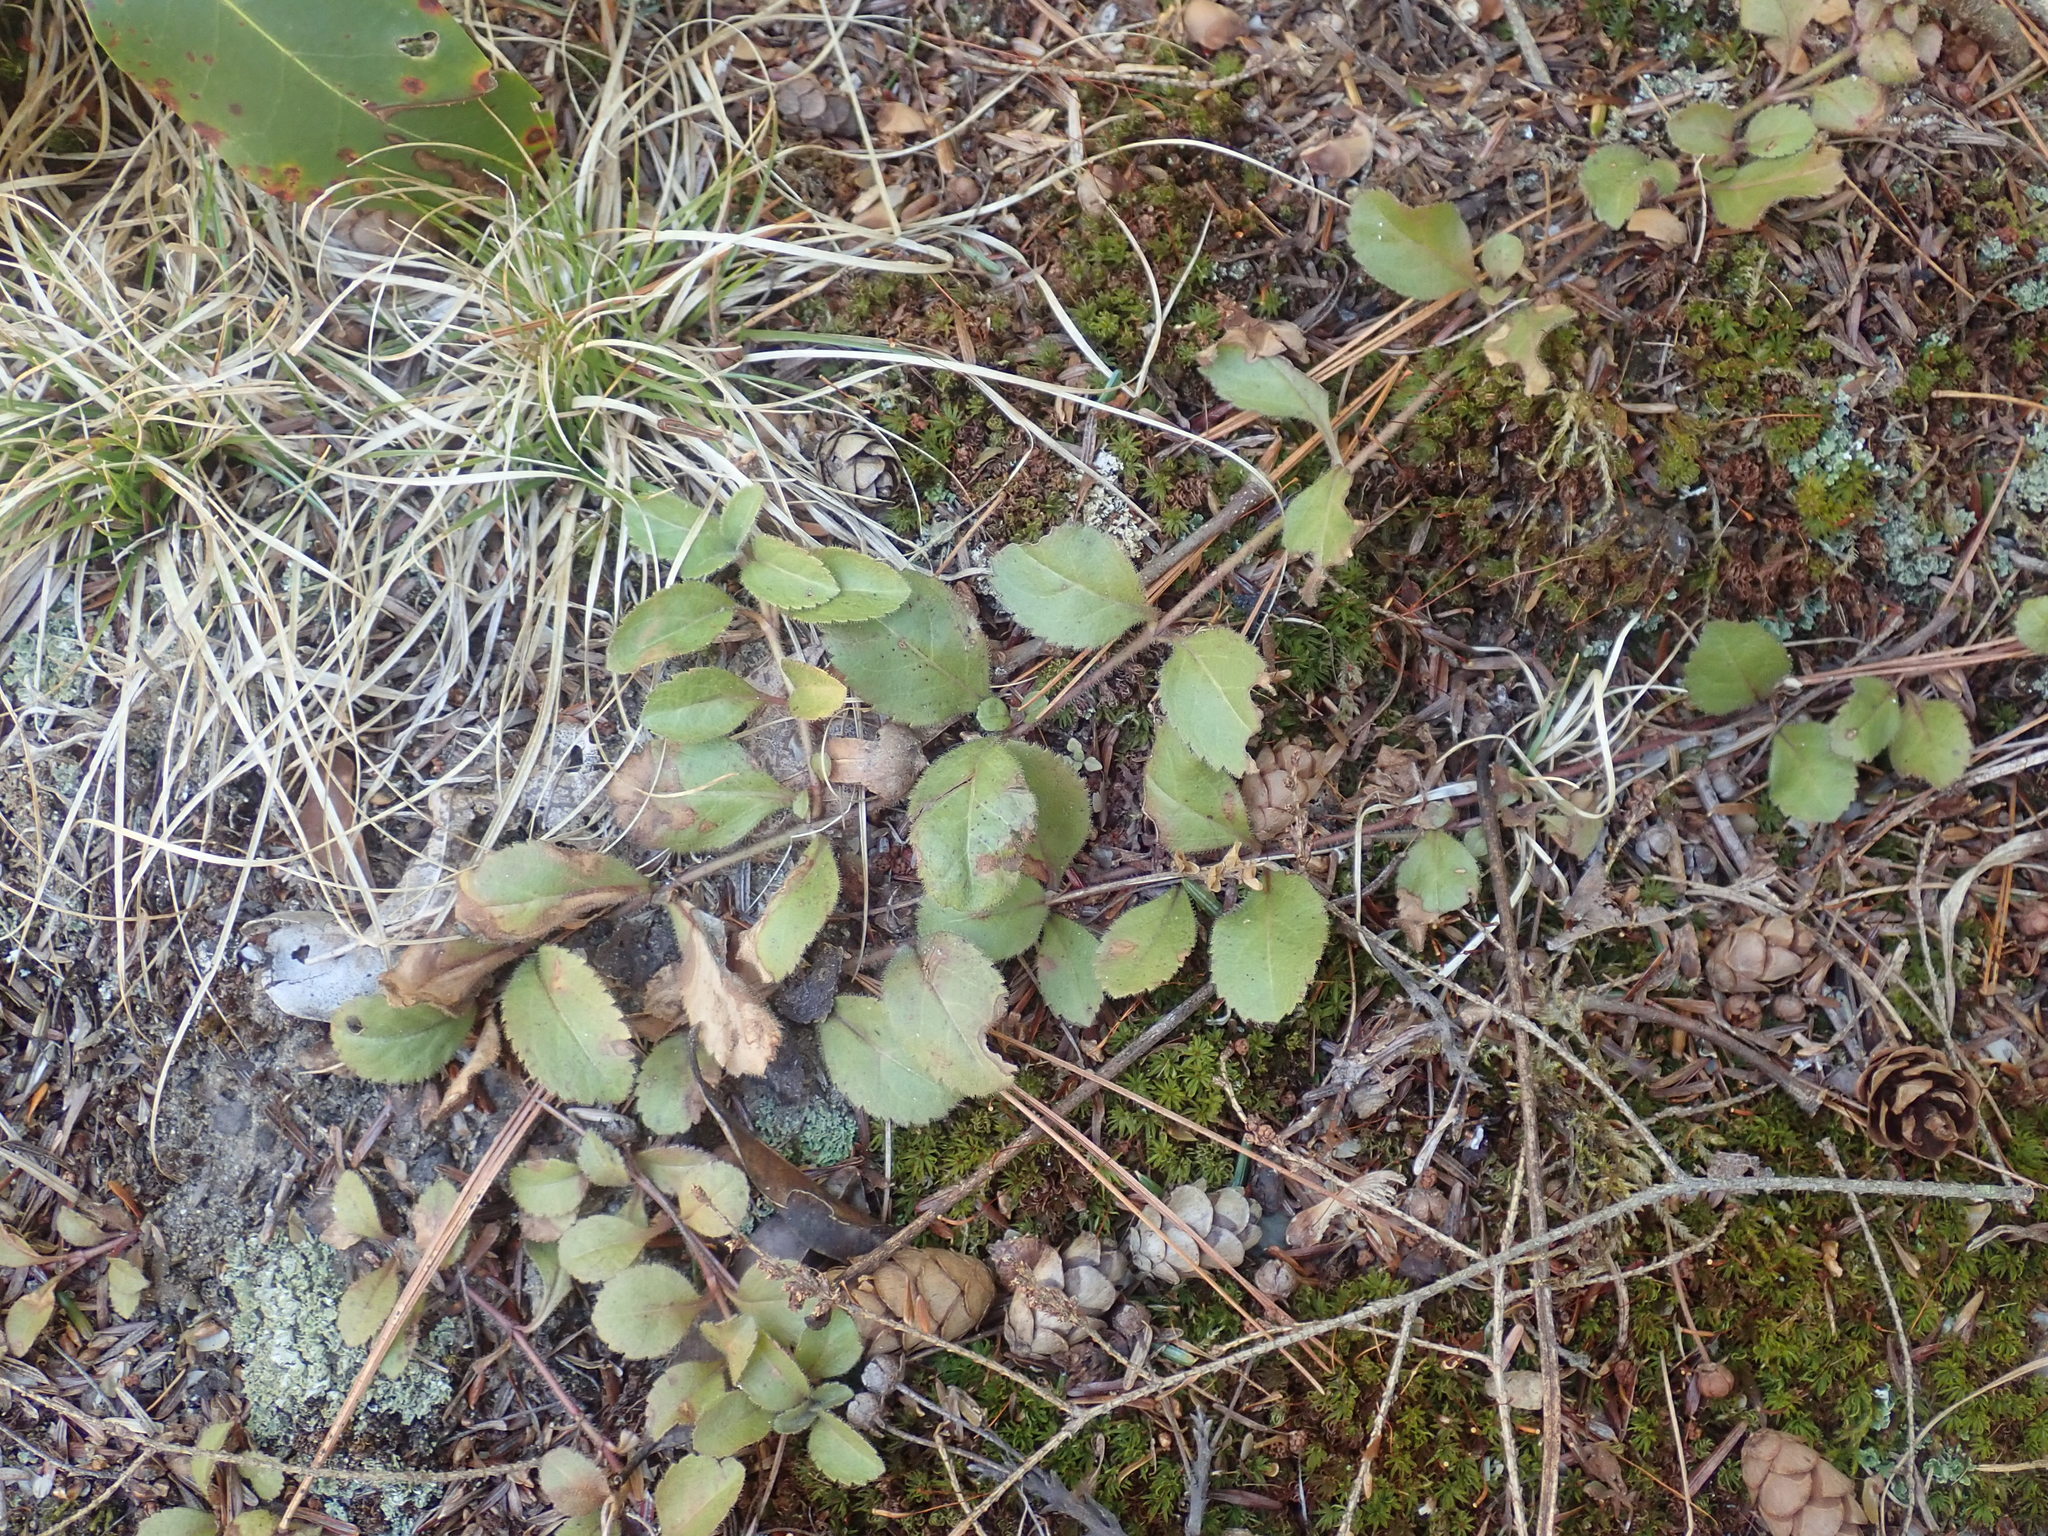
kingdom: Plantae
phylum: Tracheophyta
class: Magnoliopsida
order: Lamiales
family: Plantaginaceae
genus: Veronica
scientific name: Veronica officinalis
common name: Common speedwell
